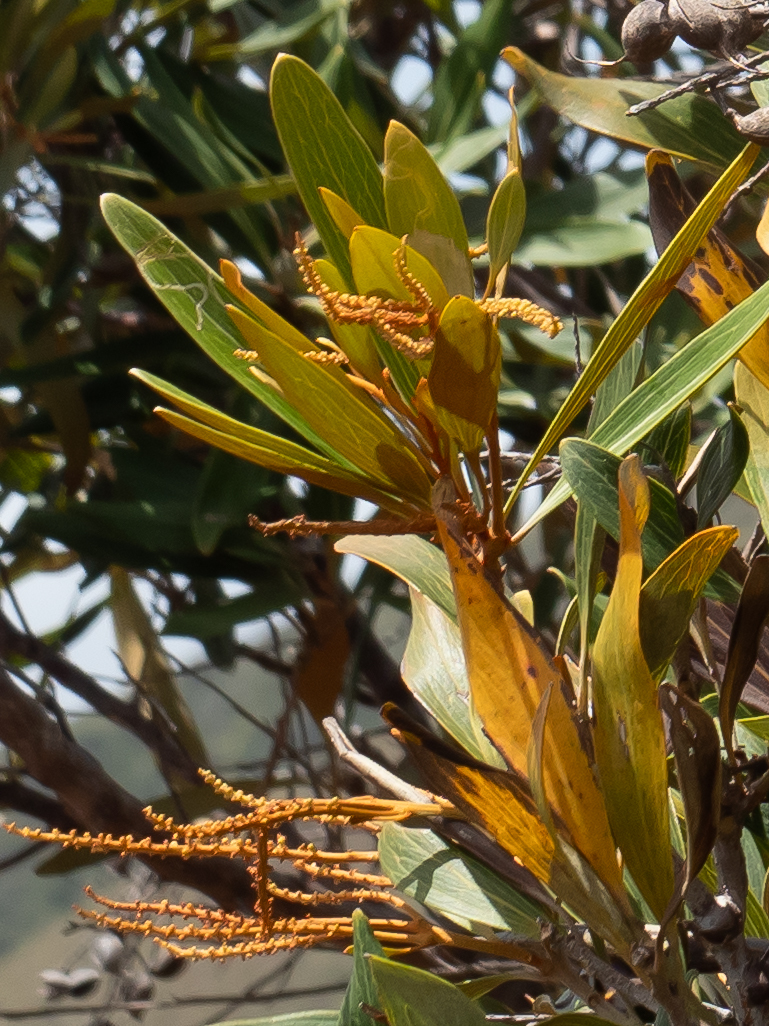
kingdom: Plantae
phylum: Tracheophyta
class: Magnoliopsida
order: Proteales
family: Proteaceae
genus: Grevillea
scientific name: Grevillea exul
